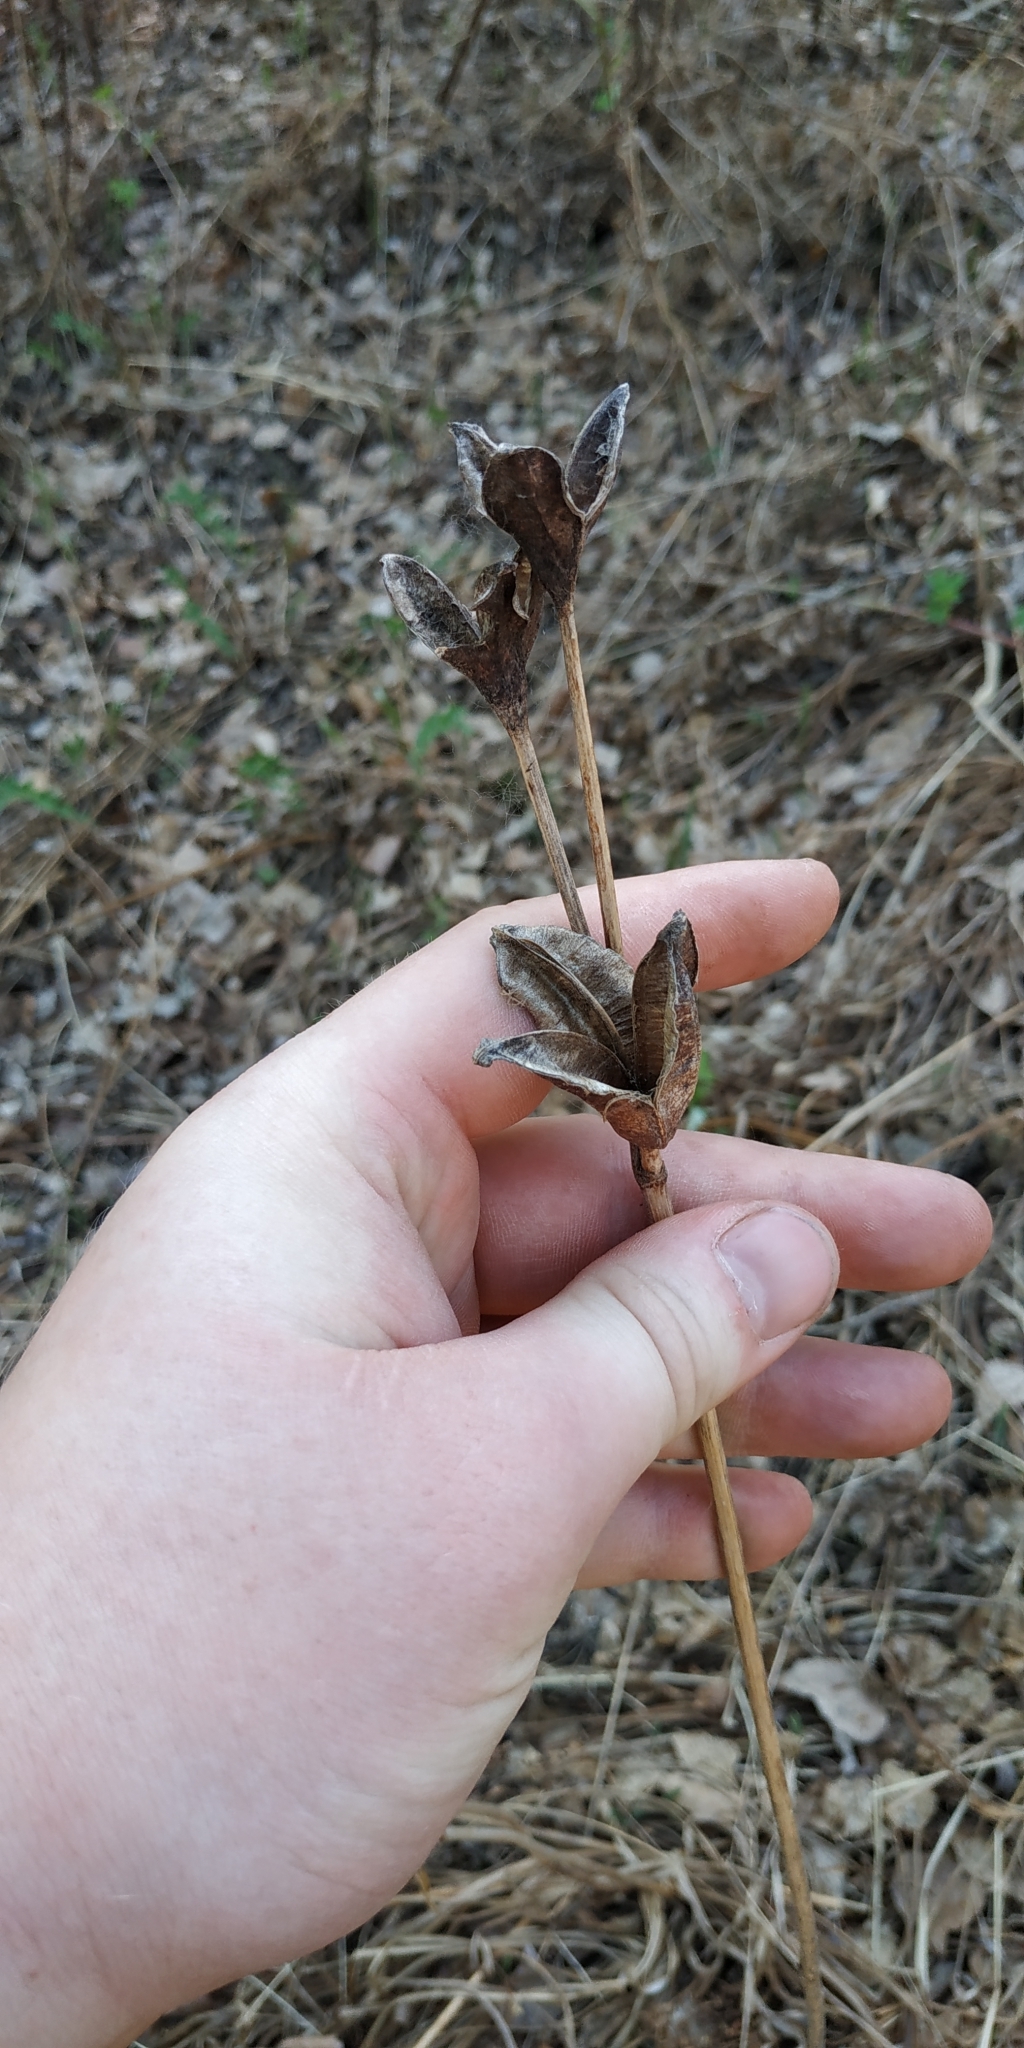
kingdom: Plantae
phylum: Tracheophyta
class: Liliopsida
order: Asparagales
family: Iridaceae
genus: Iris
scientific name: Iris sibirica
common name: Siberian iris
